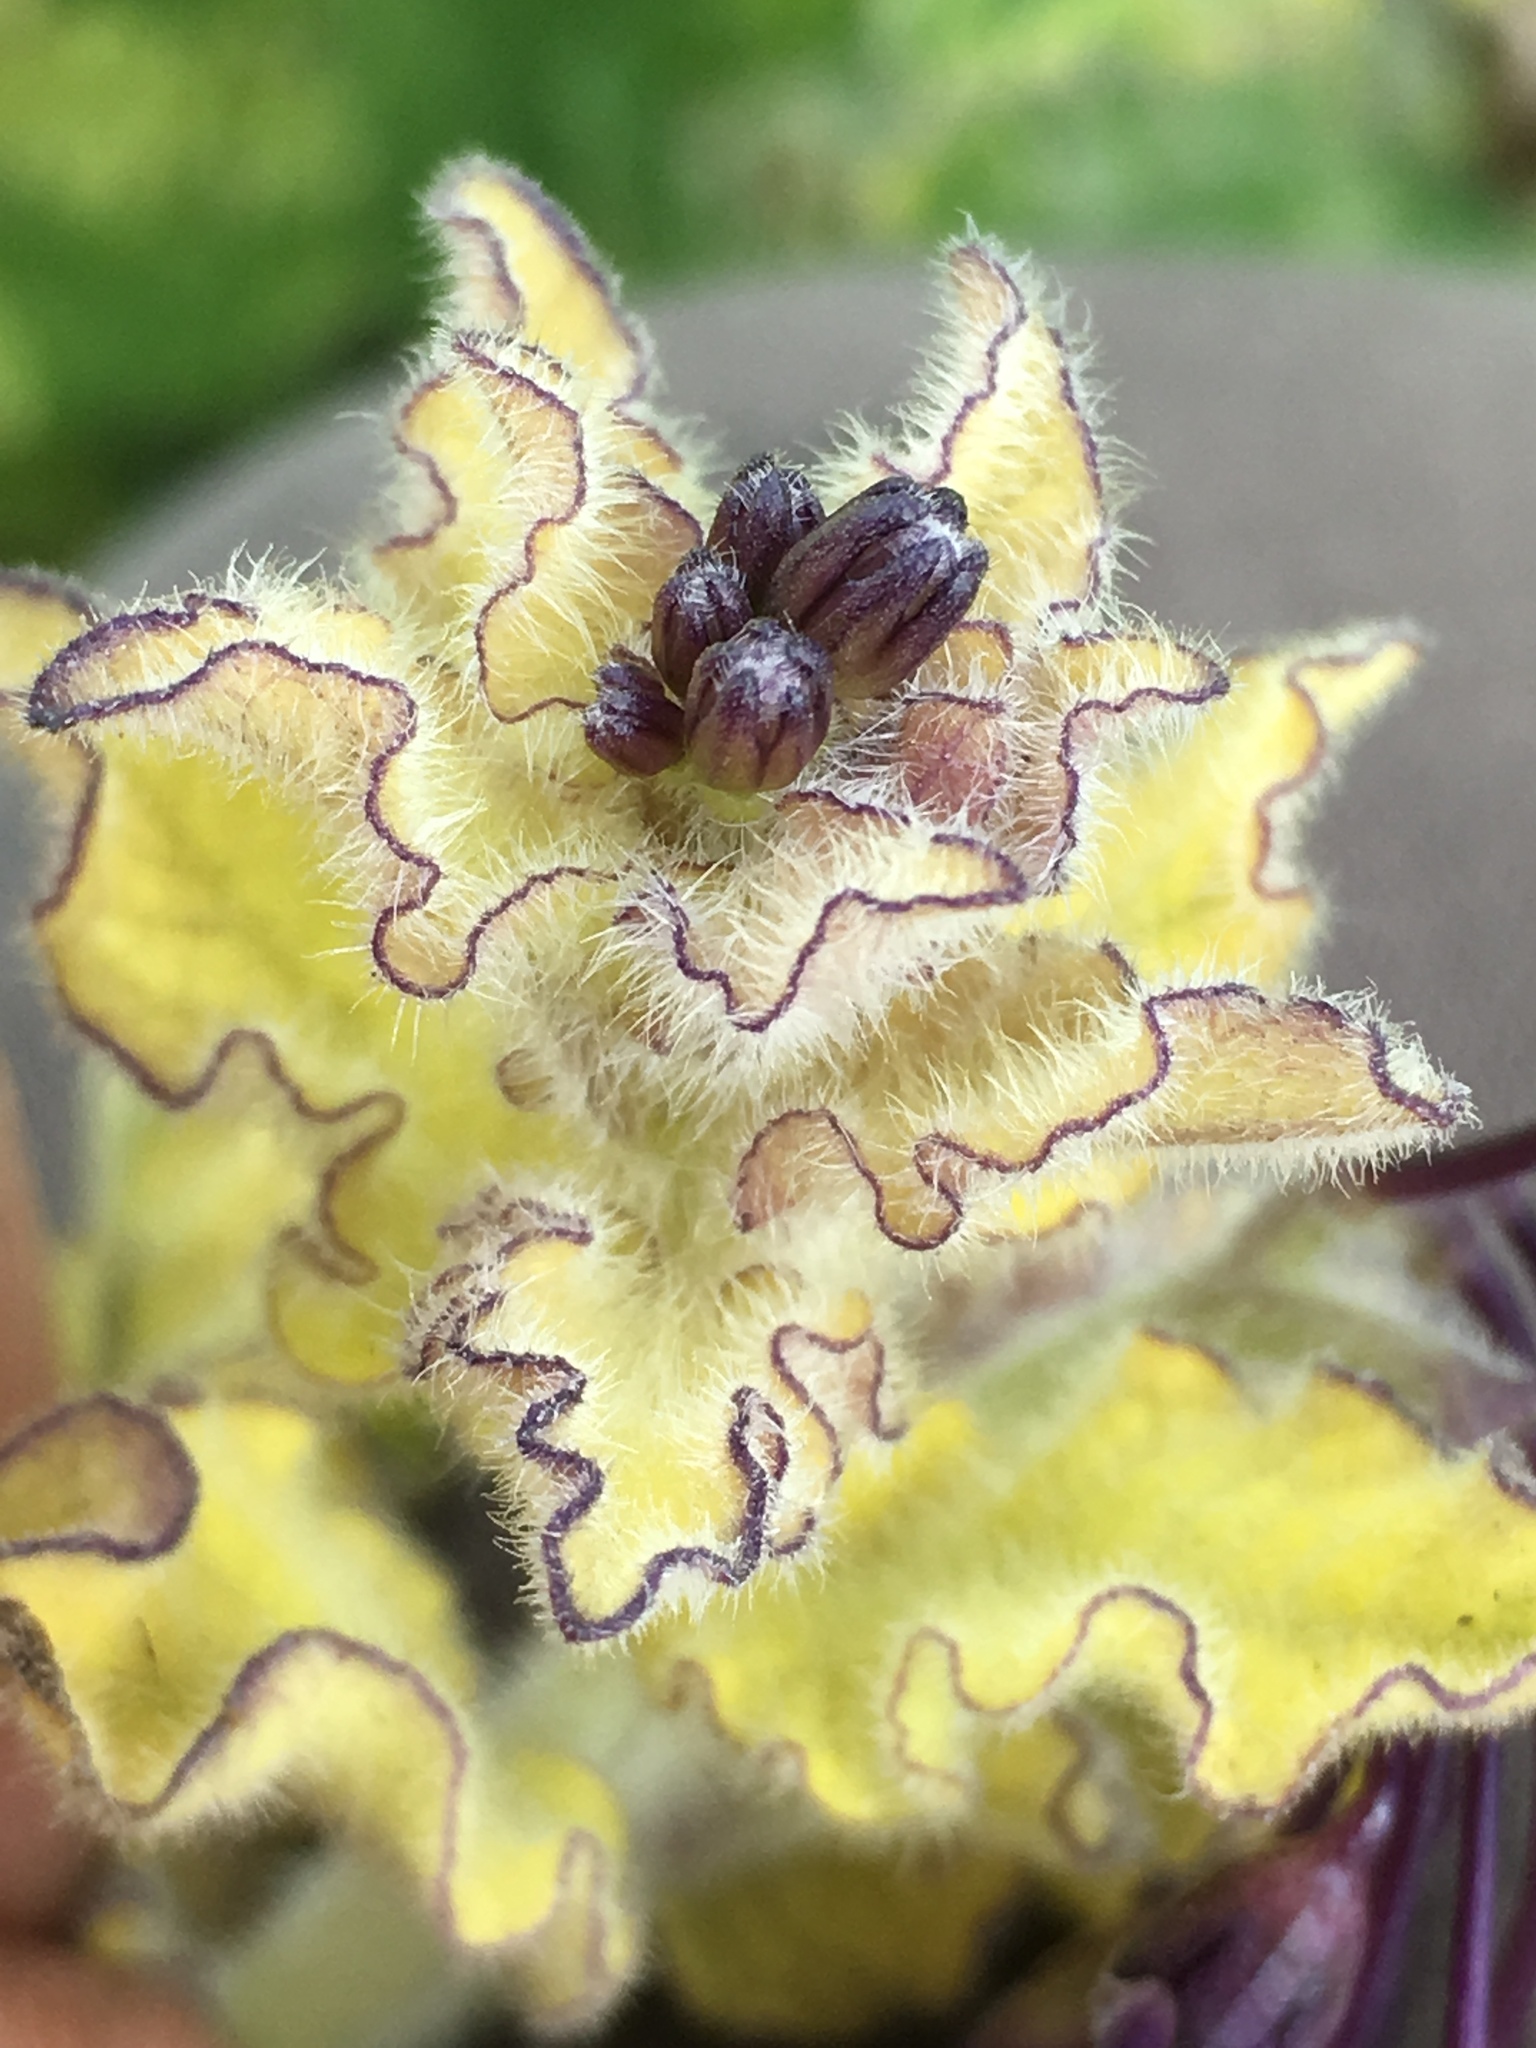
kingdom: Plantae
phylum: Tracheophyta
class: Magnoliopsida
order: Solanales
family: Solanaceae
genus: Solanum
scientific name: Solanum umbelliferum
